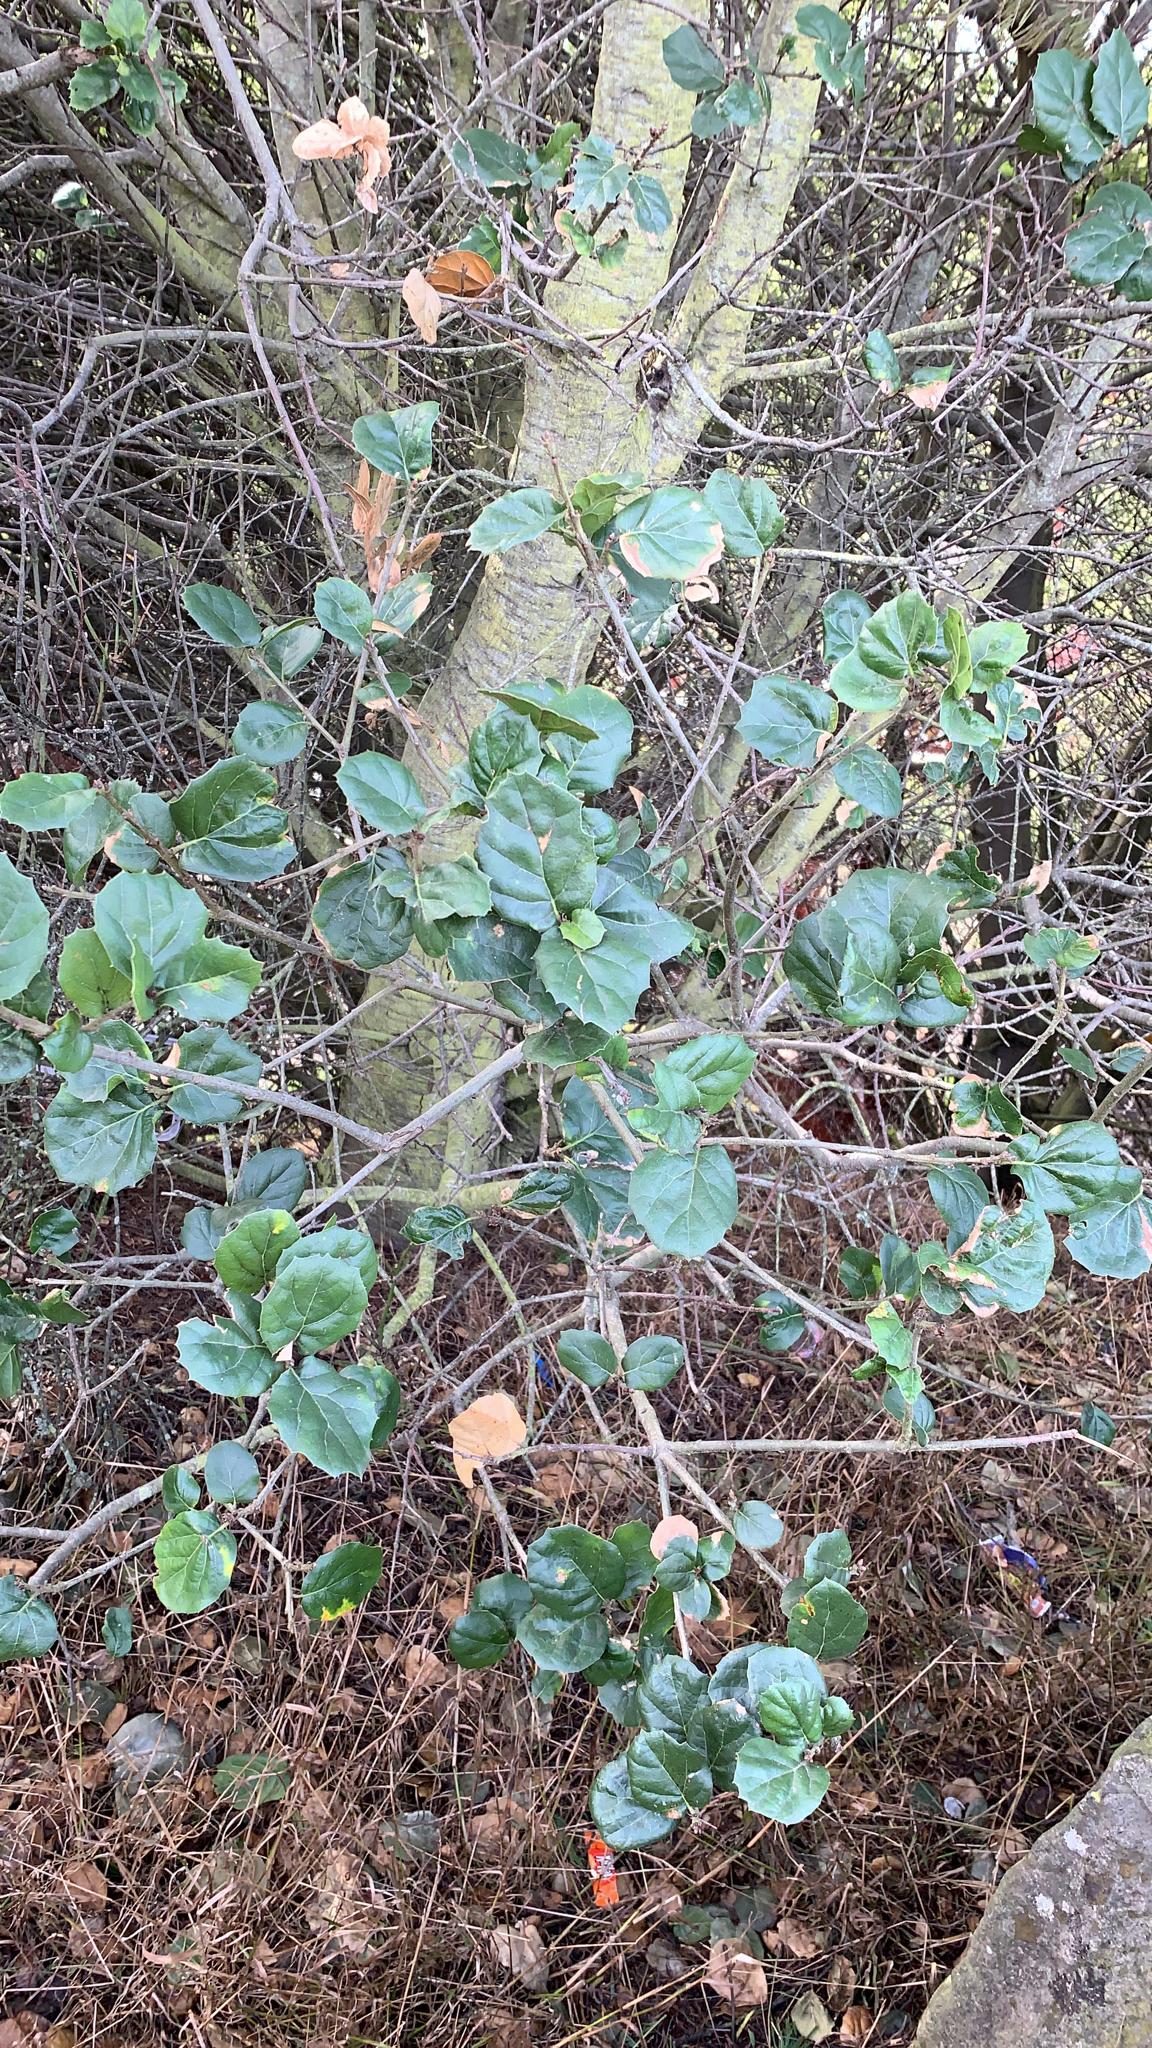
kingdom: Plantae
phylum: Tracheophyta
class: Magnoliopsida
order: Fagales
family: Fagaceae
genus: Quercus
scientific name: Quercus agrifolia
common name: California live oak
